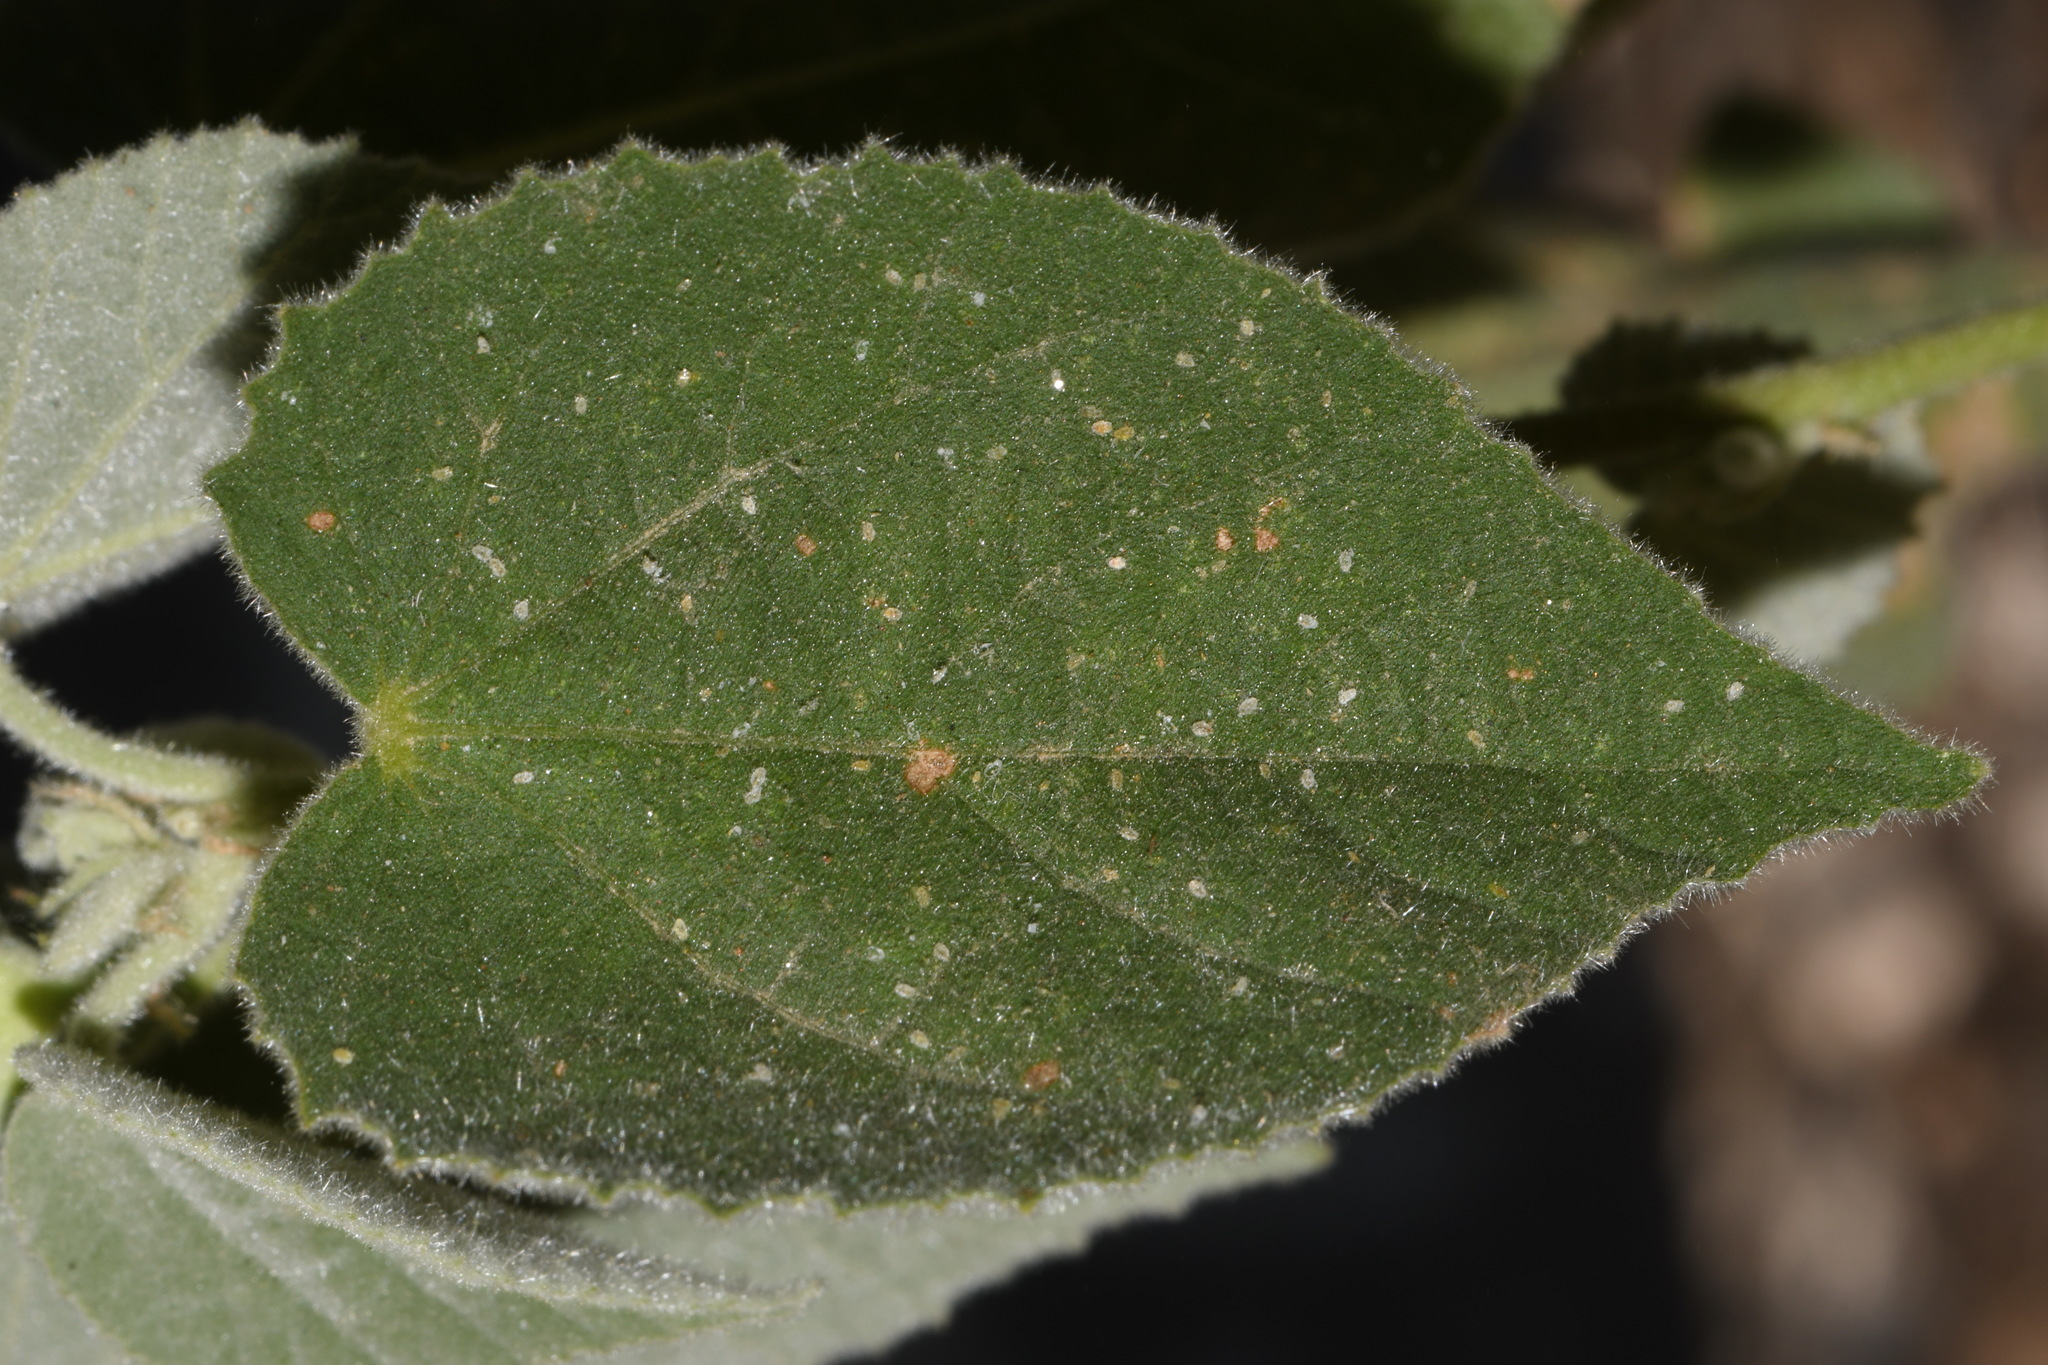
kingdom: Plantae
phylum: Tracheophyta
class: Magnoliopsida
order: Malvales
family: Malvaceae
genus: Abutilon
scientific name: Abutilon abutiloides
